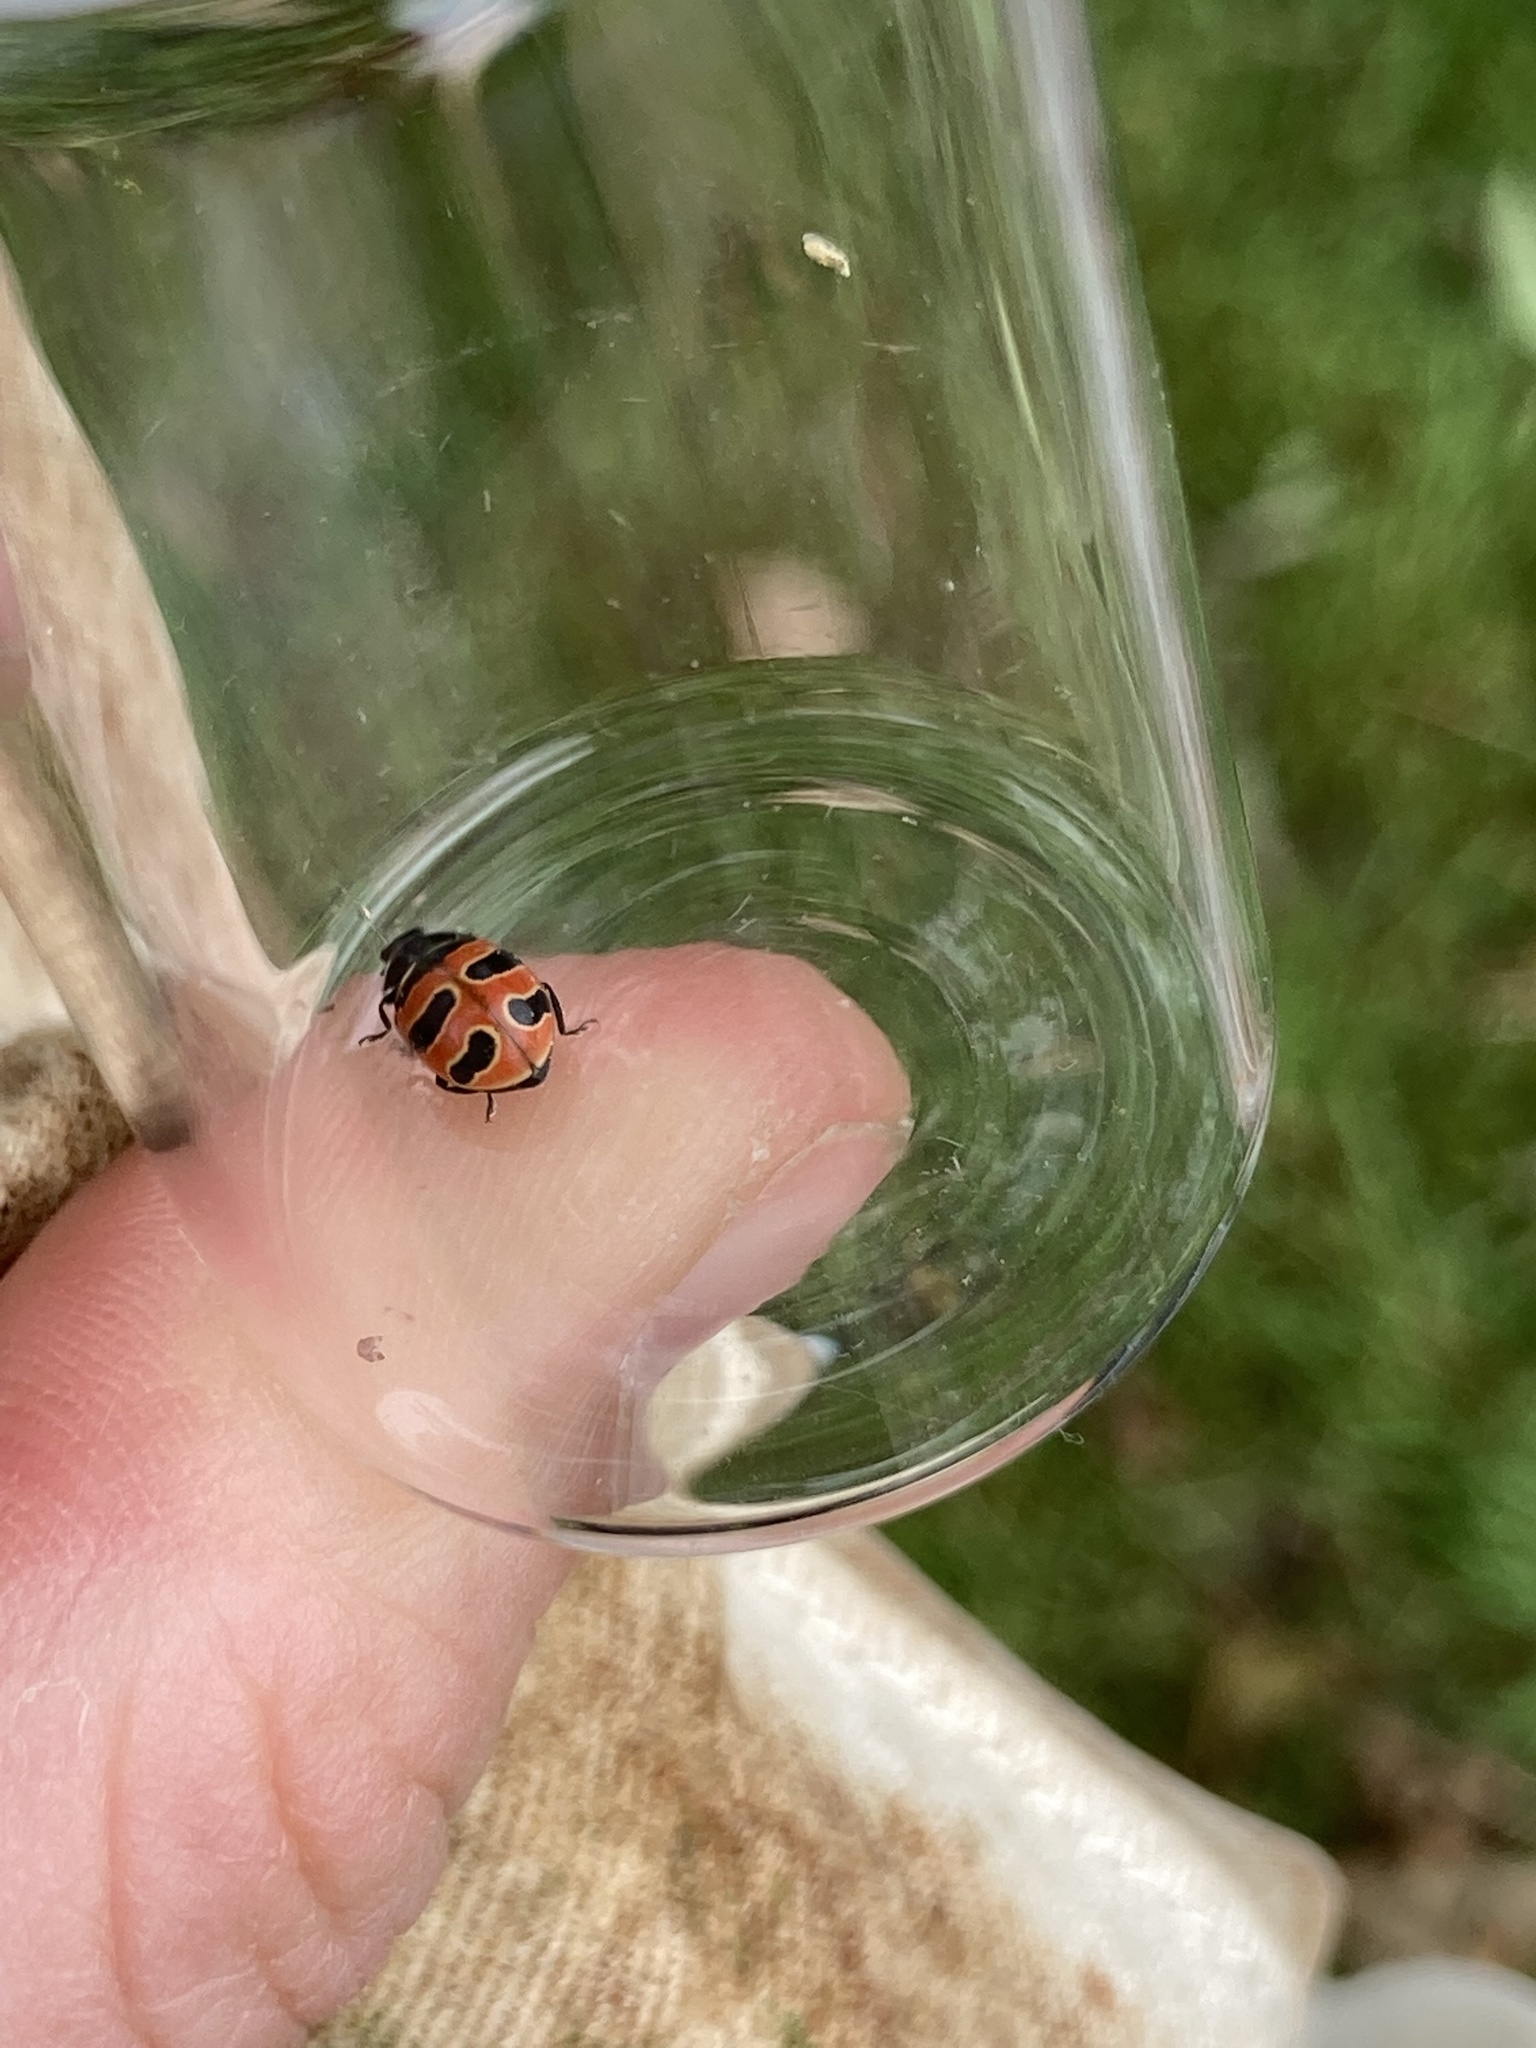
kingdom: Animalia
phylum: Arthropoda
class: Insecta
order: Coleoptera
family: Coccinellidae
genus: Coccinella
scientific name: Coccinella trifasciata
